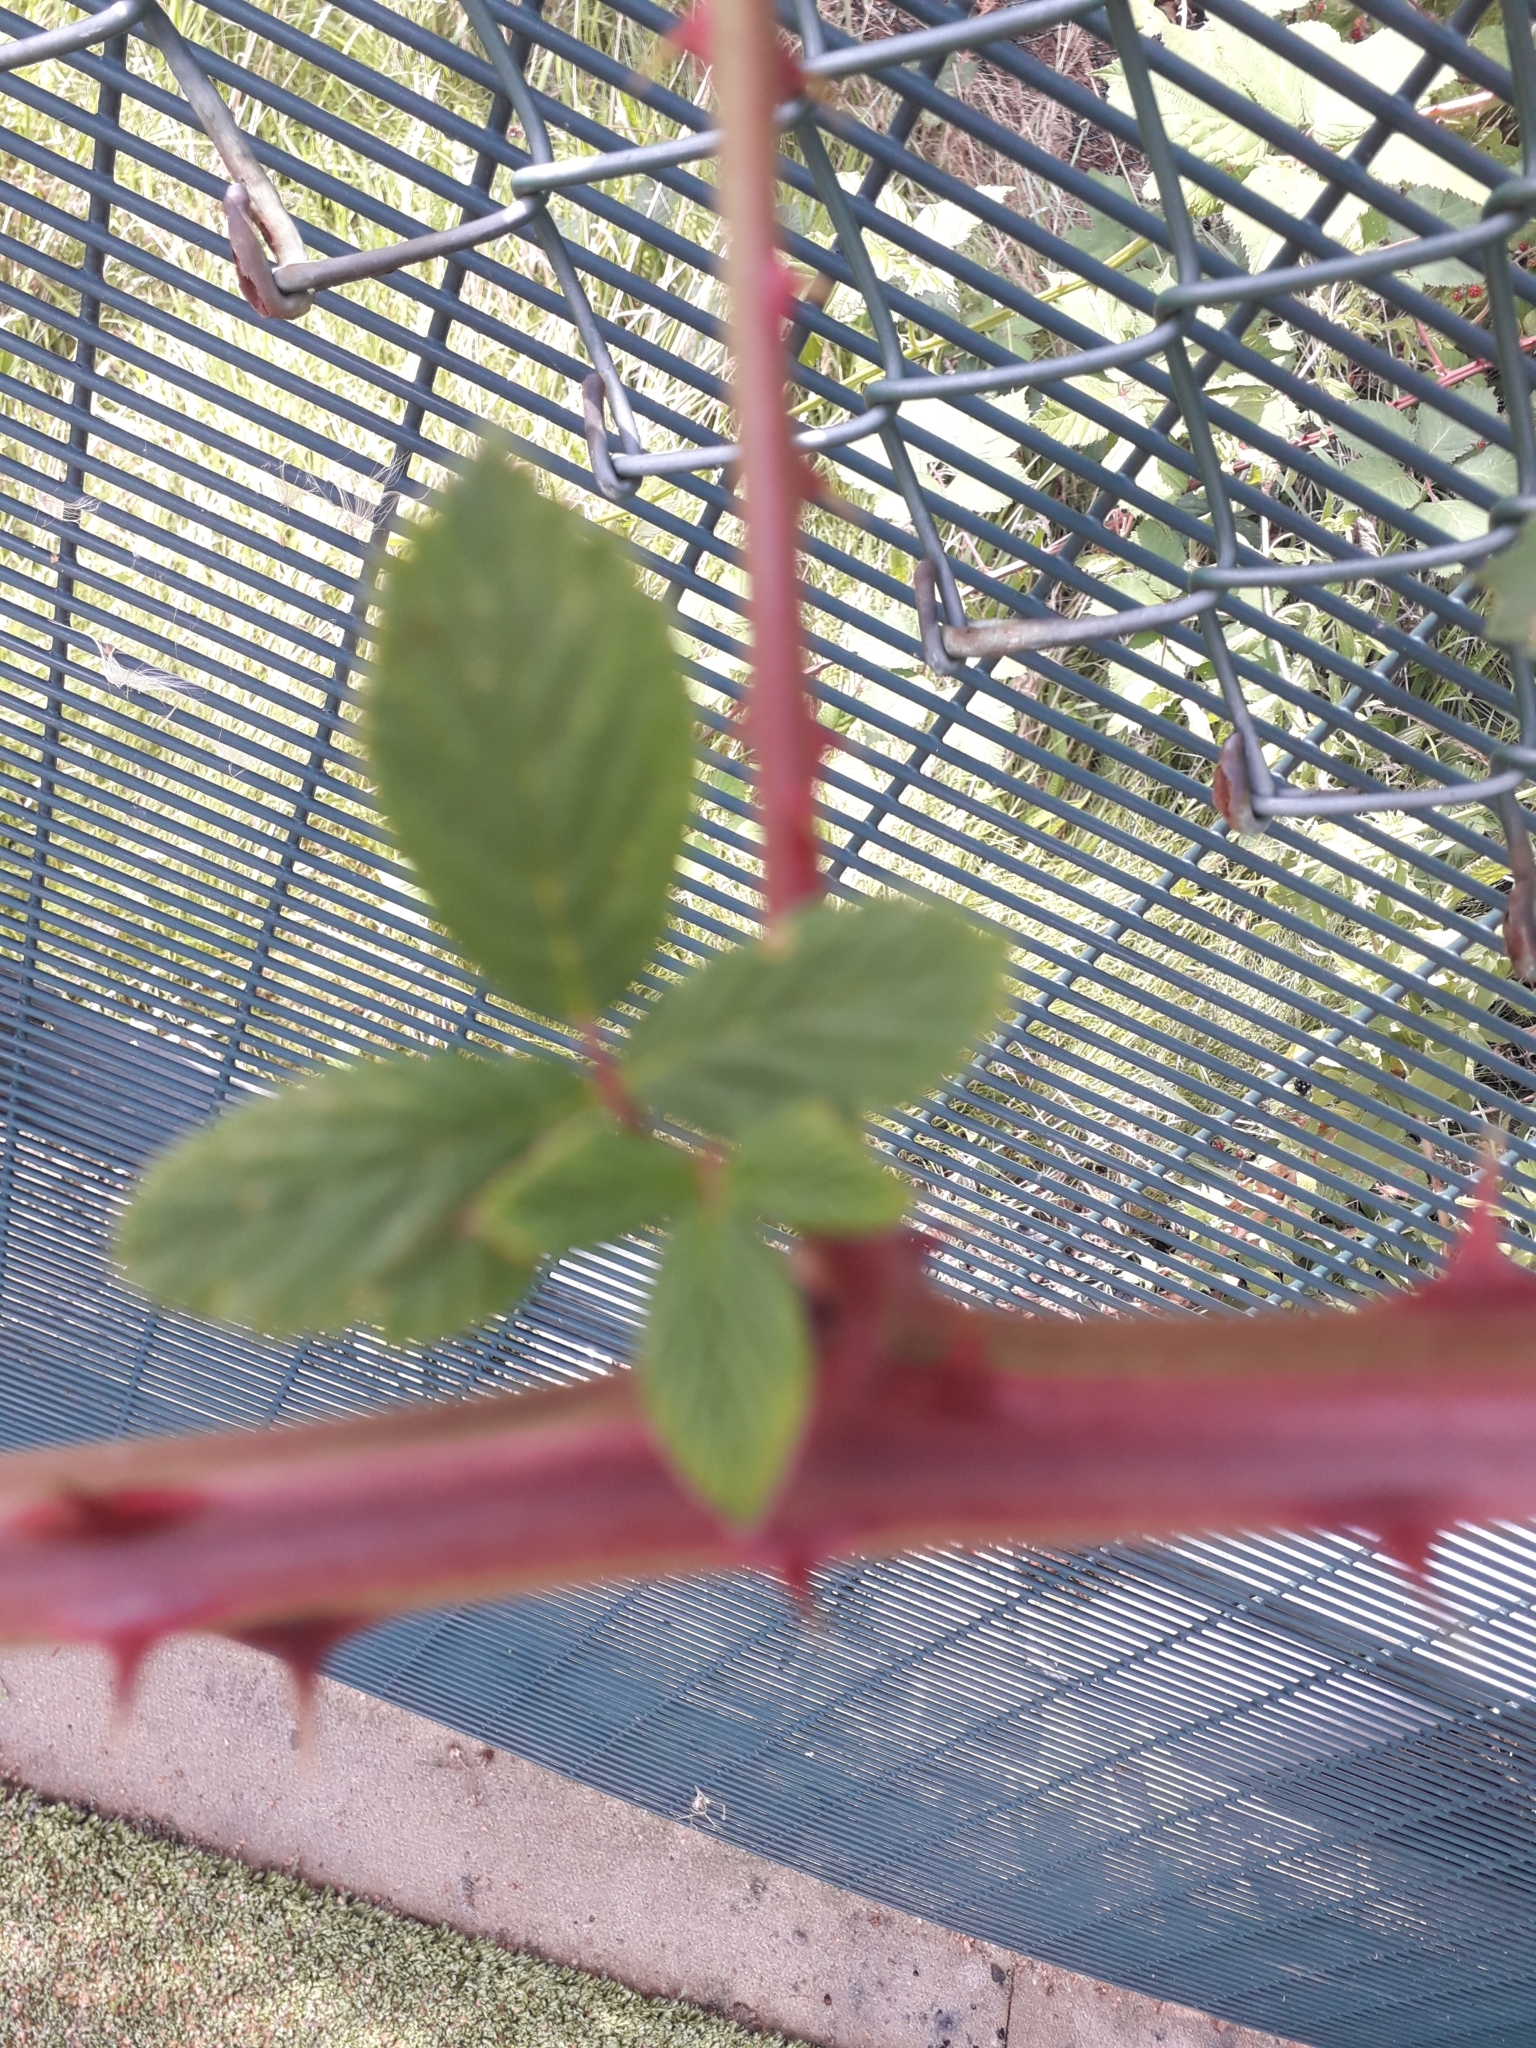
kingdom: Plantae
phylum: Tracheophyta
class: Magnoliopsida
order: Rosales
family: Rosaceae
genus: Rubus
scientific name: Rubus fruticosus
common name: Blackberry, bramble
